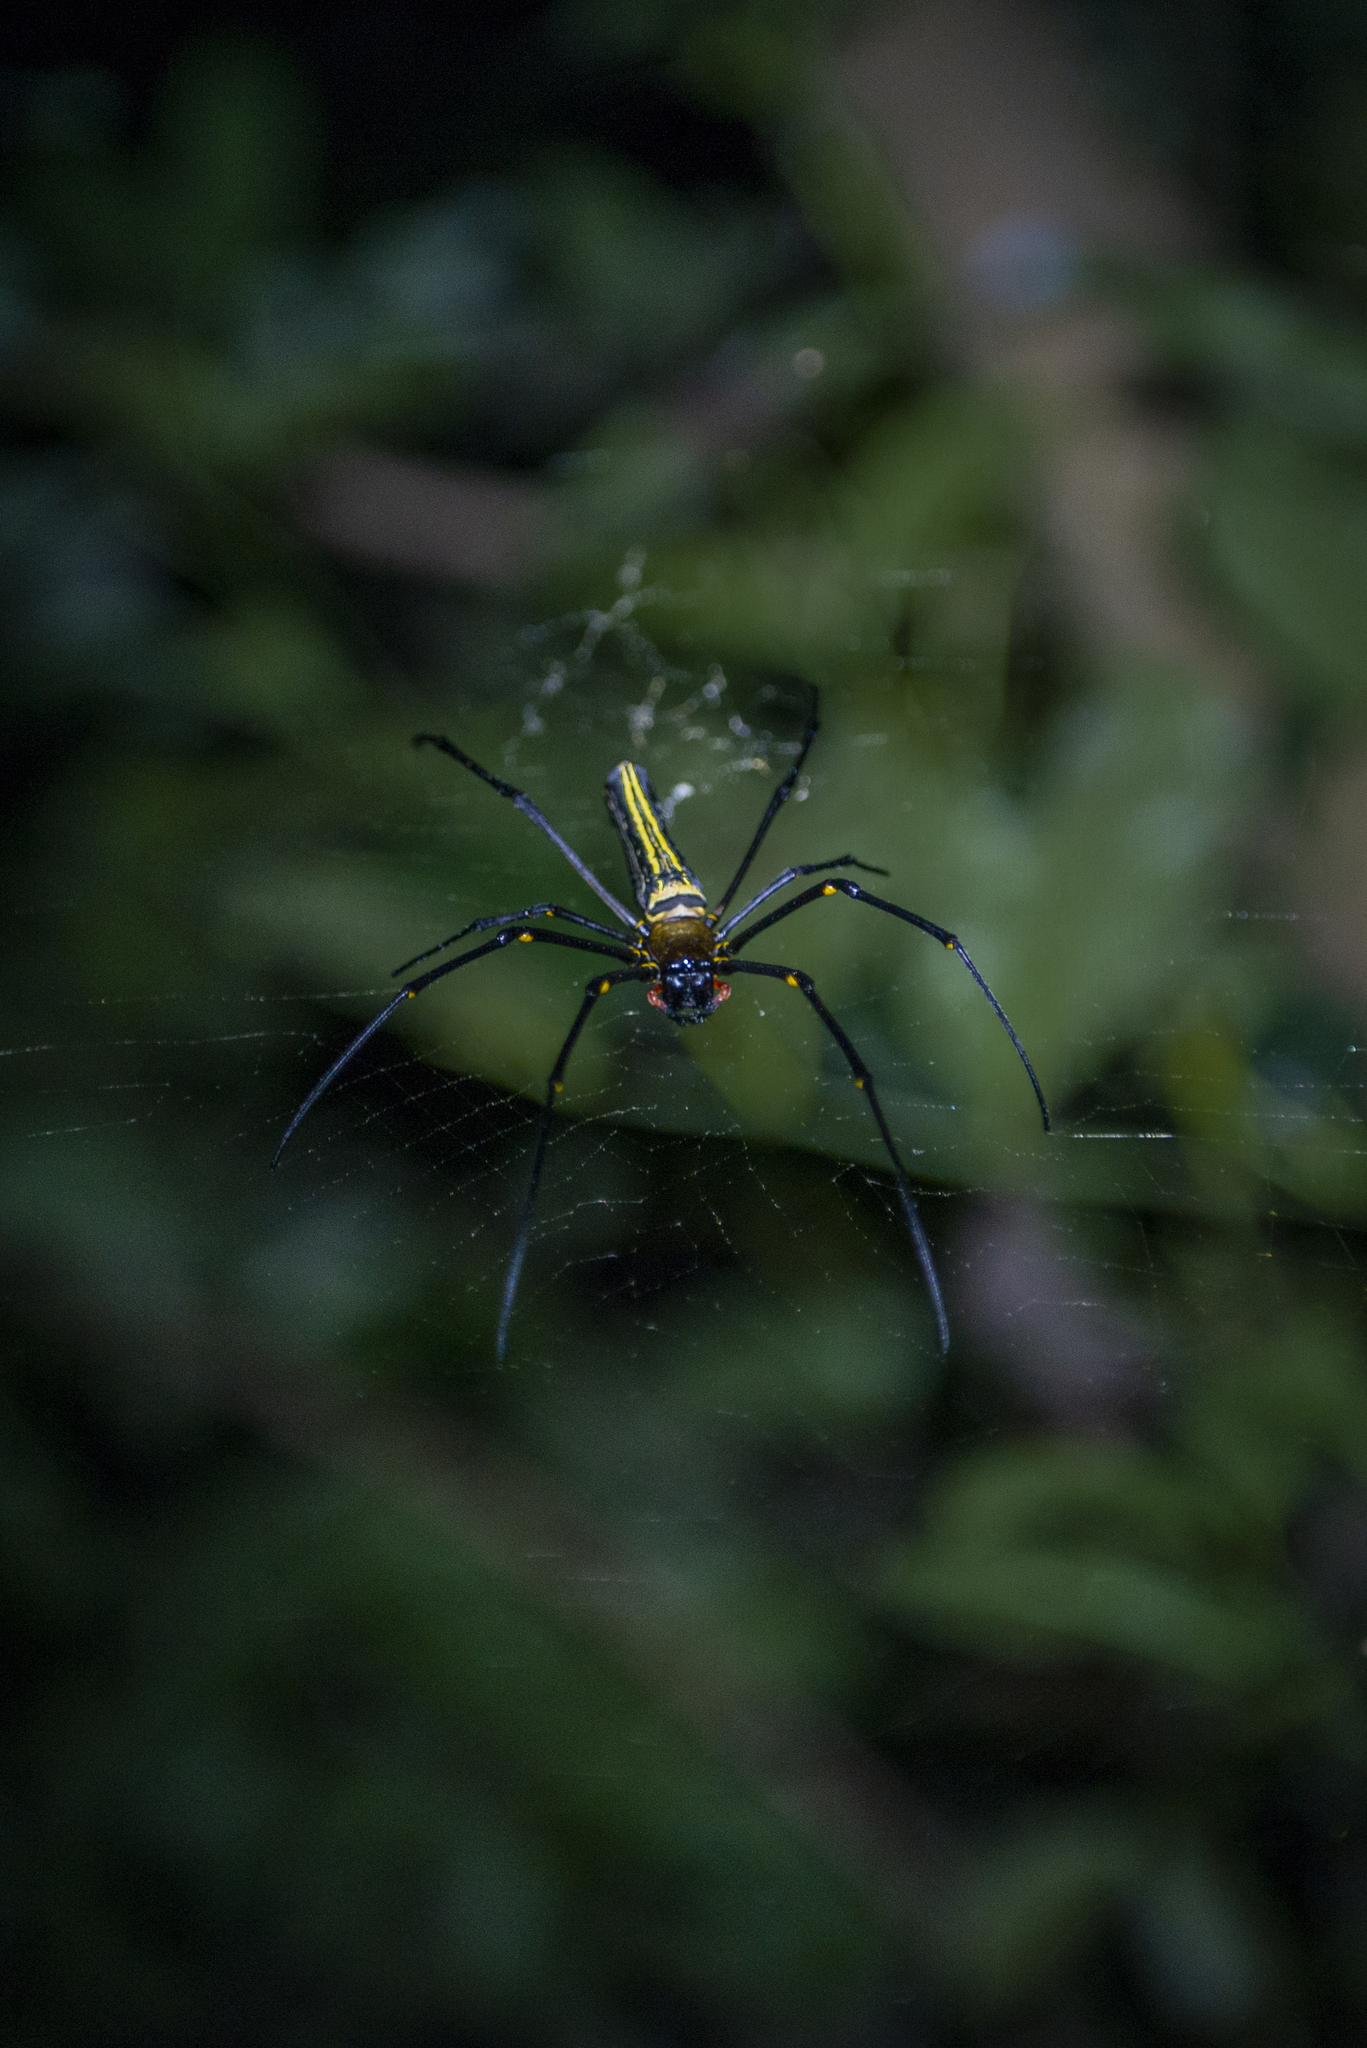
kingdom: Animalia
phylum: Arthropoda
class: Arachnida
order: Araneae
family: Araneidae
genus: Nephila
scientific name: Nephila pilipes
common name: Giant golden orb weaver
